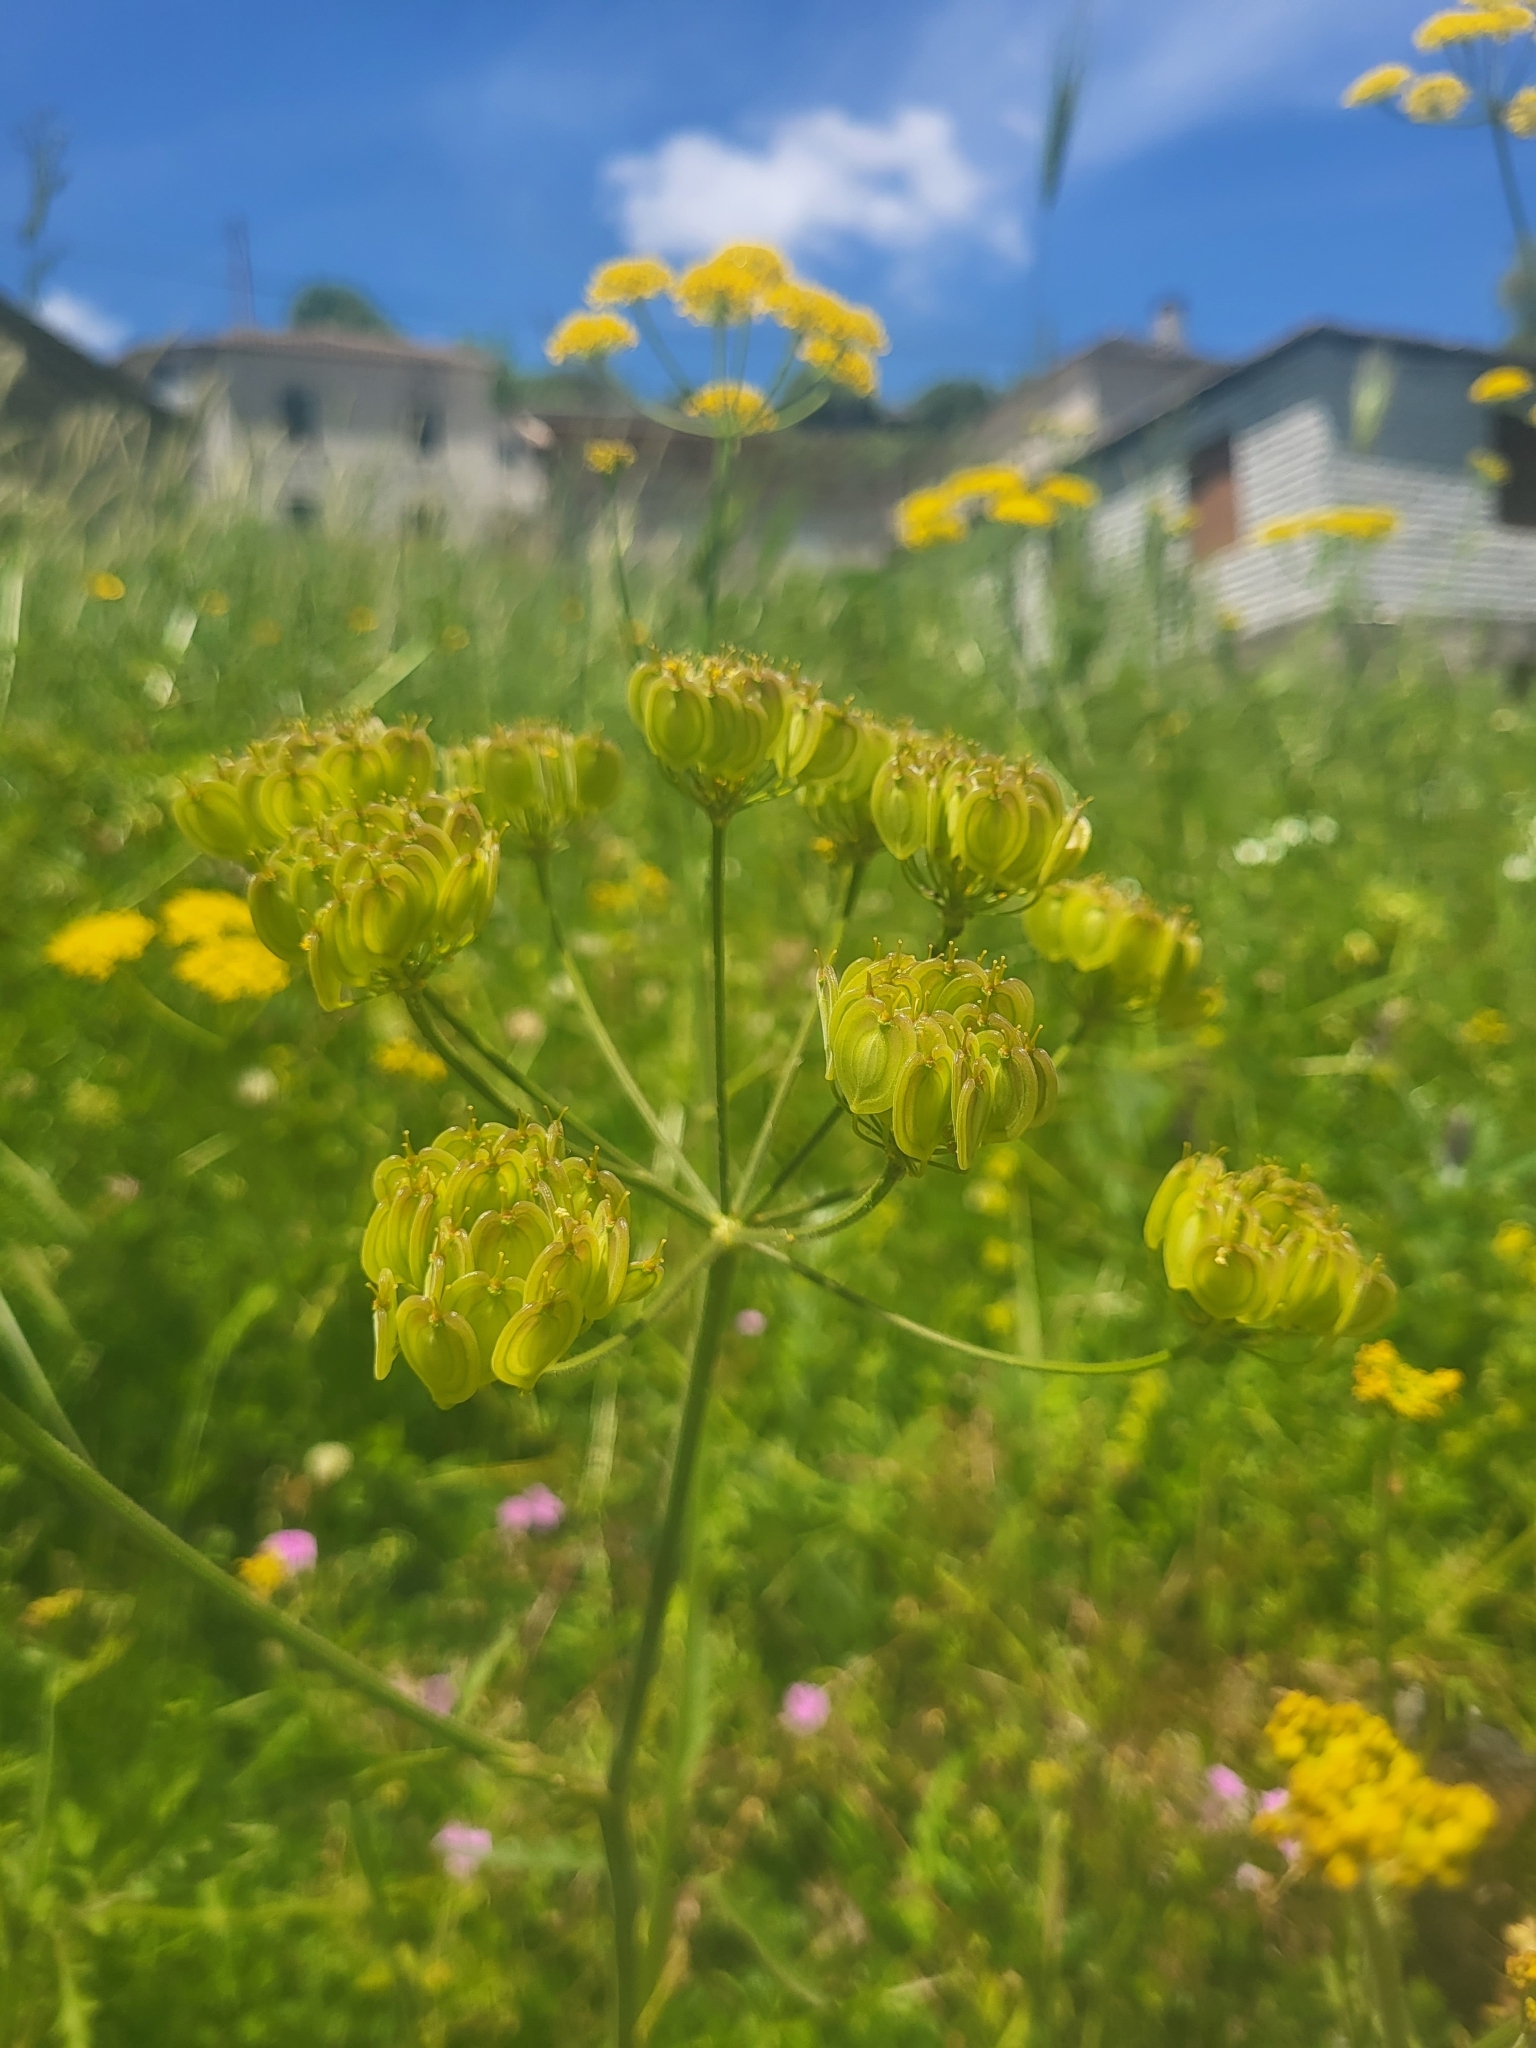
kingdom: Plantae
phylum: Tracheophyta
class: Magnoliopsida
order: Apiales
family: Apiaceae
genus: Leiotulus
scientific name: Leiotulus aureus
